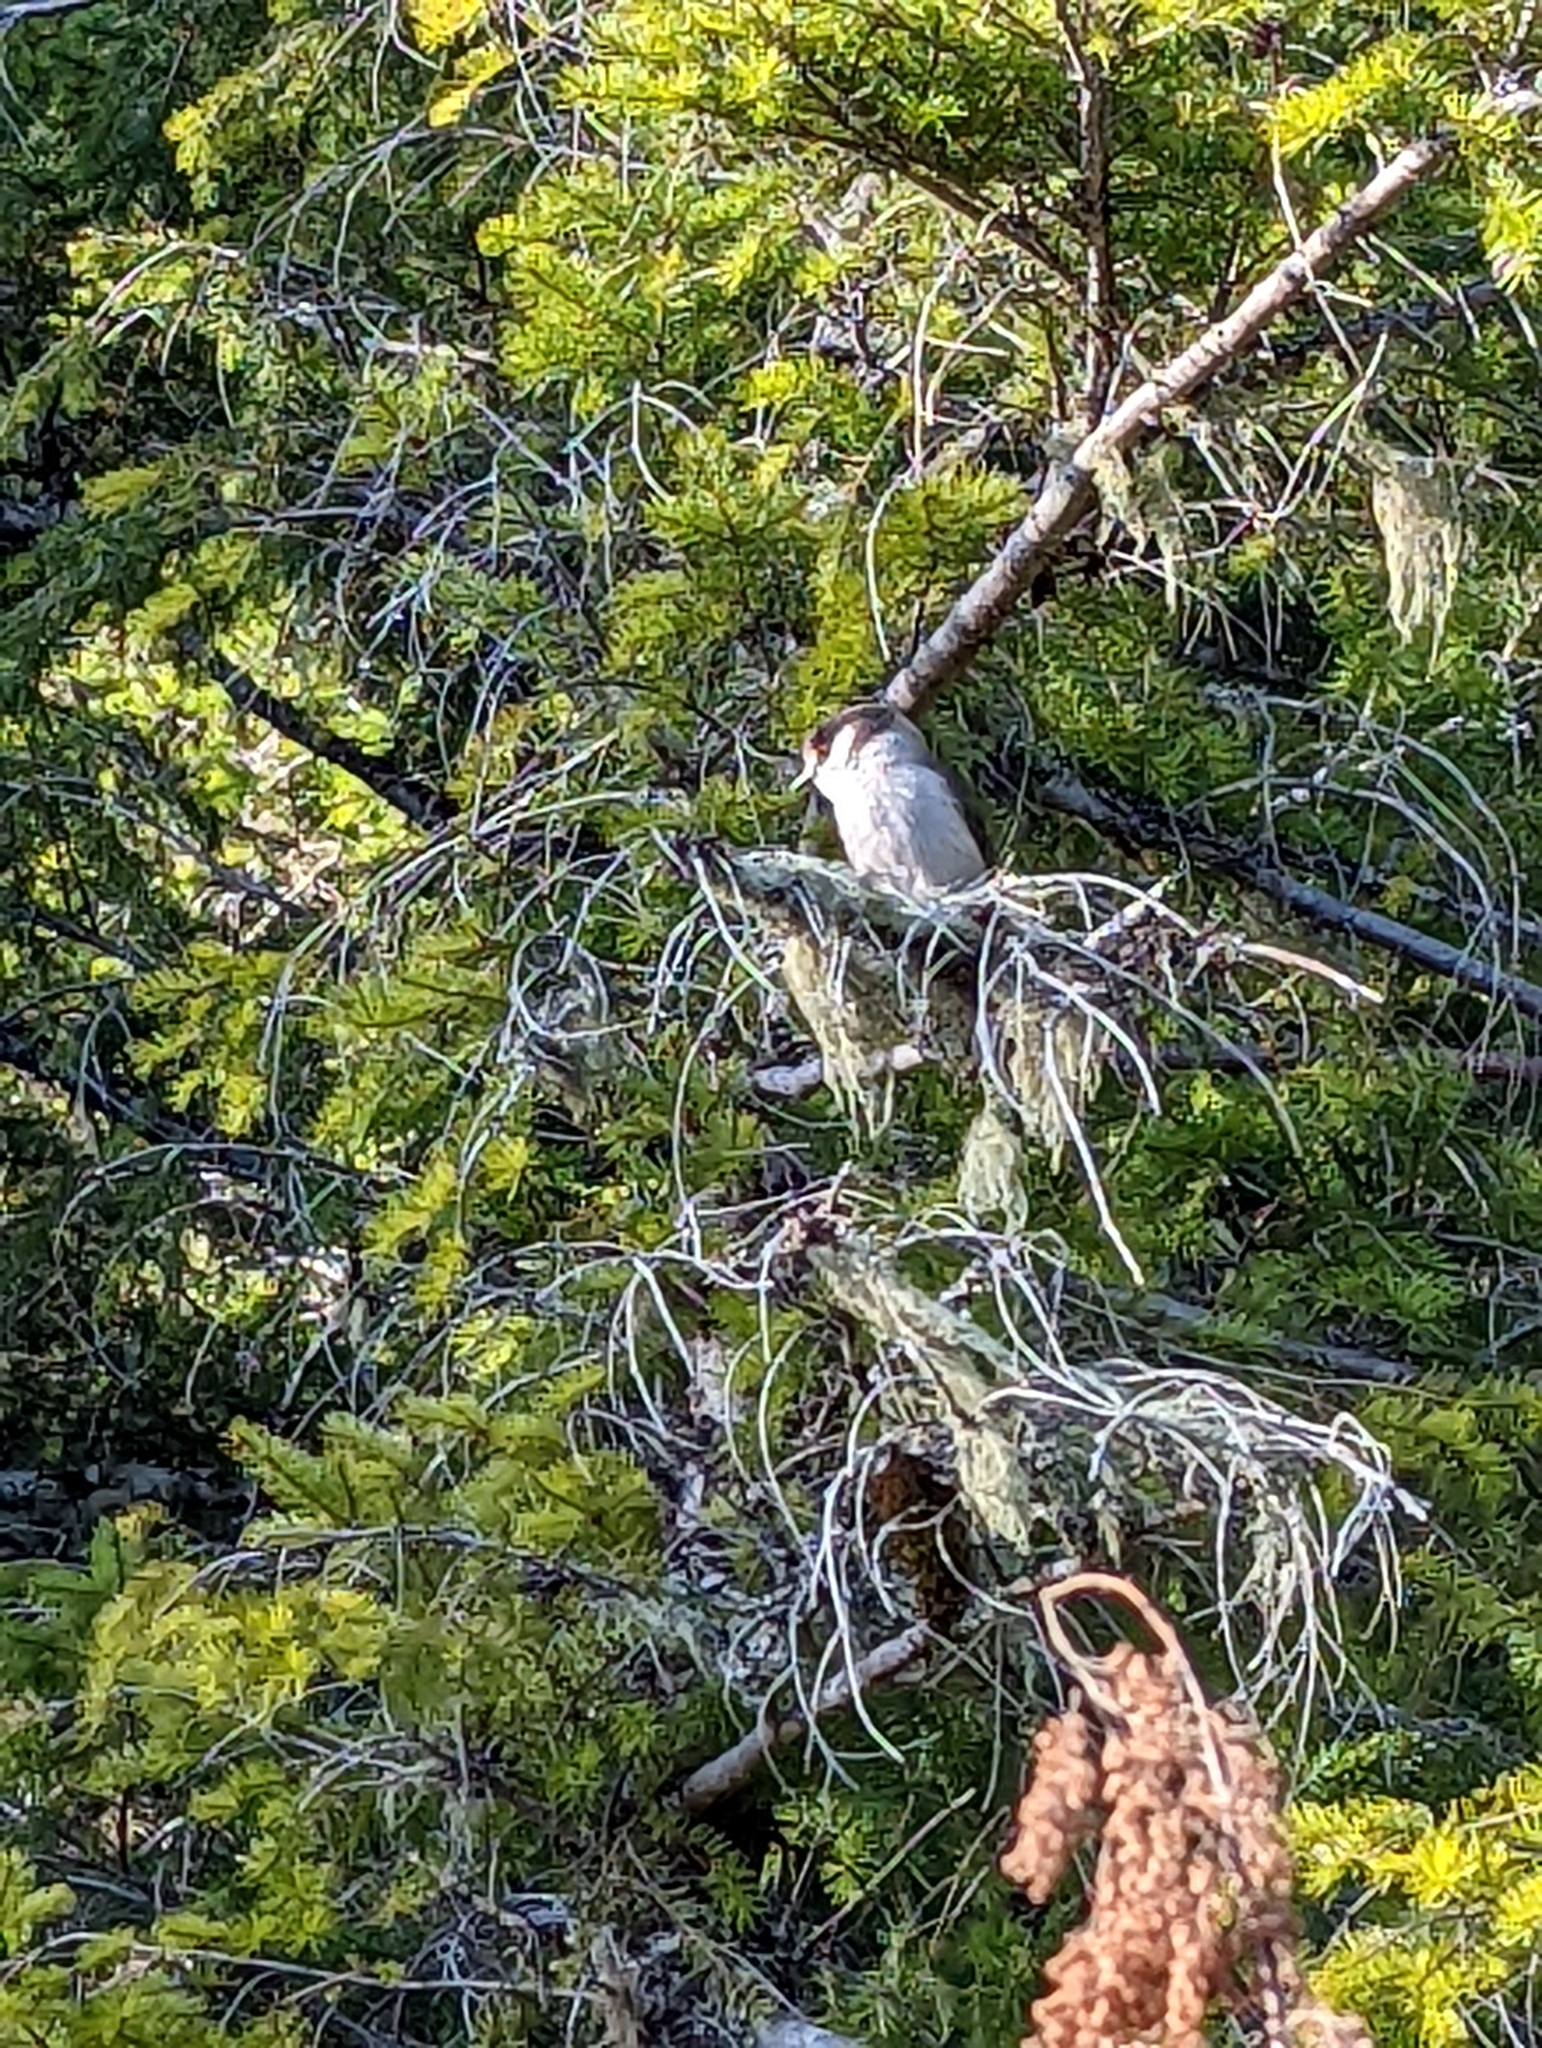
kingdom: Animalia
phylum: Chordata
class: Aves
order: Passeriformes
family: Corvidae
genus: Perisoreus
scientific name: Perisoreus canadensis
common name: Gray jay
